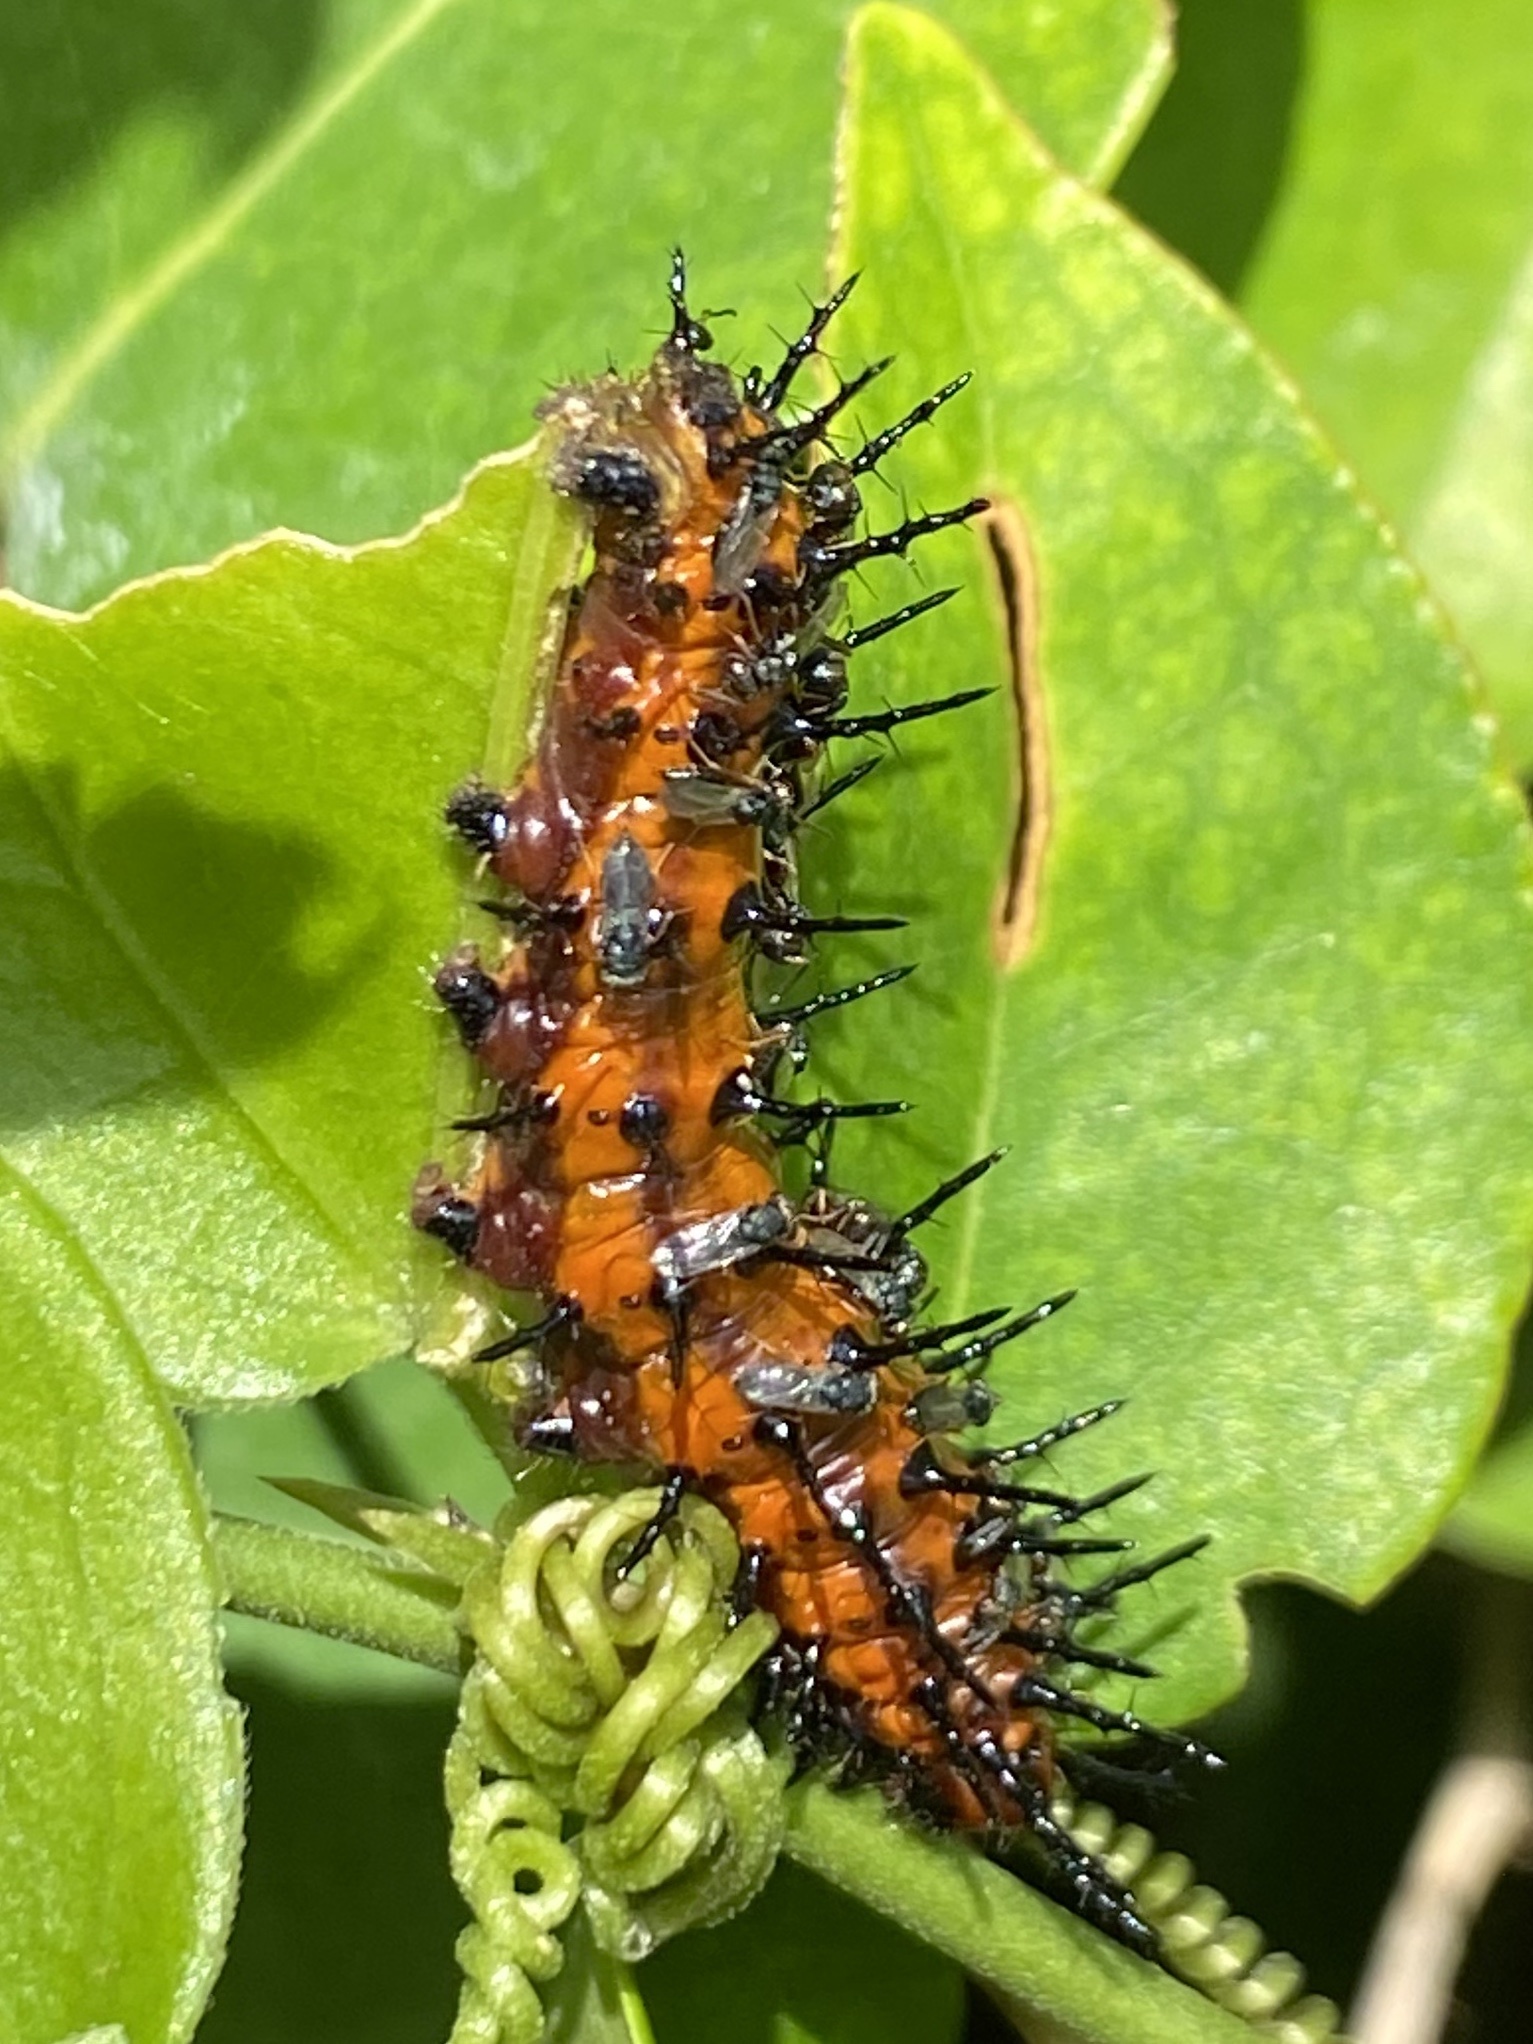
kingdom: Animalia
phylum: Arthropoda
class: Insecta
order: Lepidoptera
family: Nymphalidae
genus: Dione
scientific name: Dione vanillae
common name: Gulf fritillary
